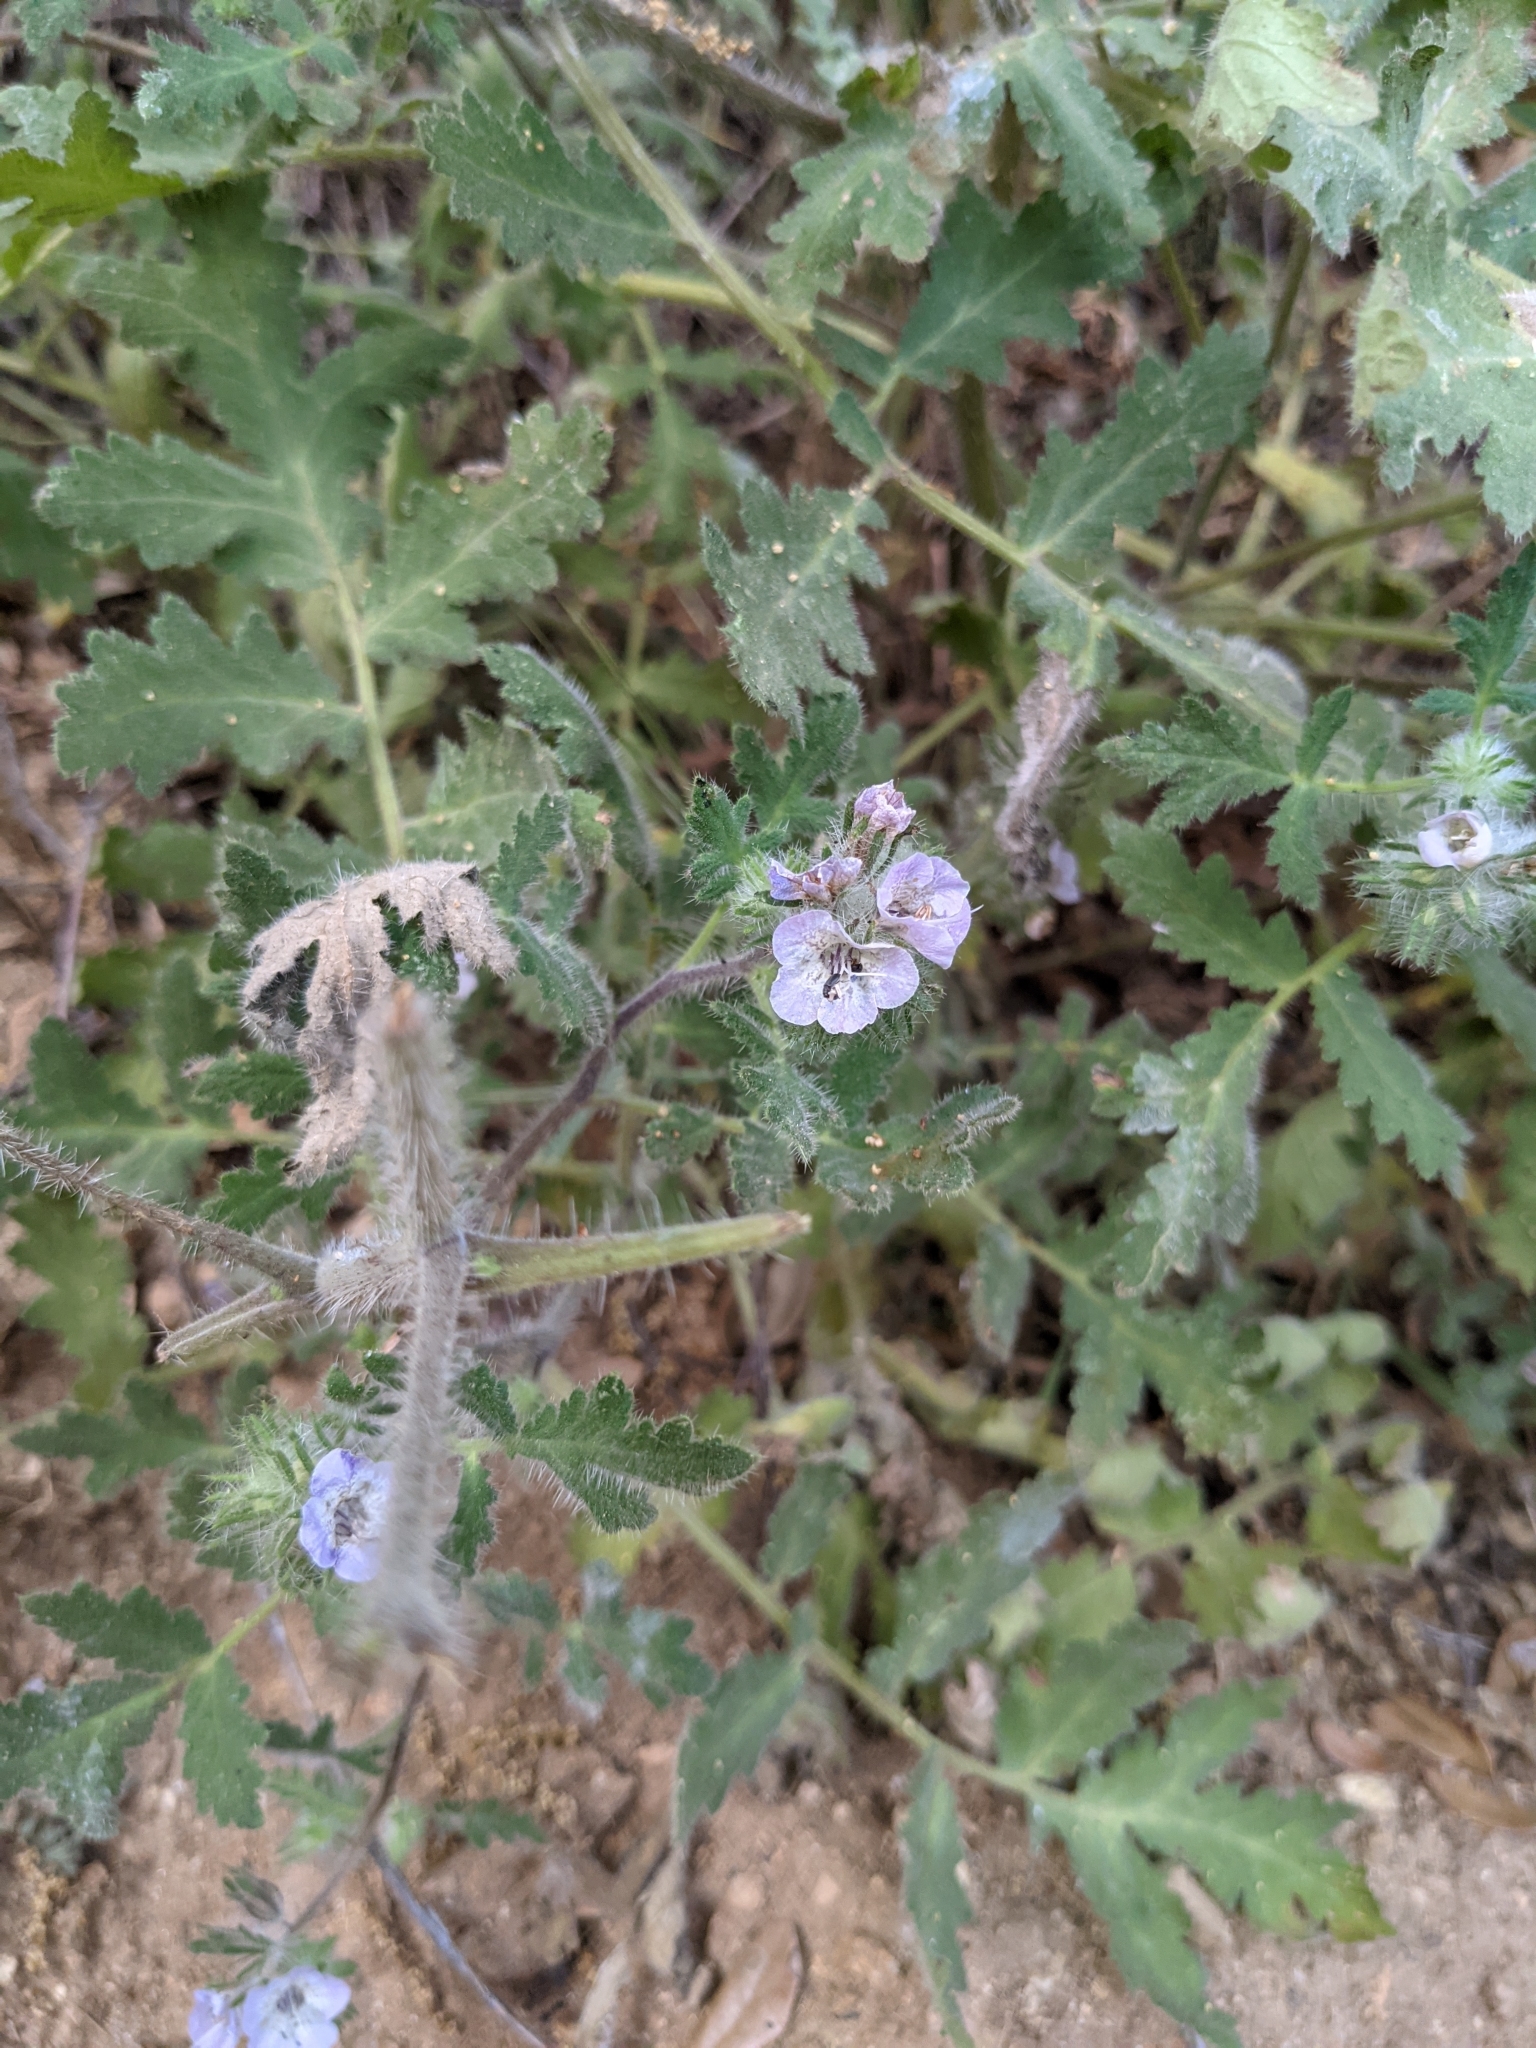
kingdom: Plantae
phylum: Tracheophyta
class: Magnoliopsida
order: Boraginales
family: Hydrophyllaceae
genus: Phacelia
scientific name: Phacelia cicutaria
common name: Caterpillar phacelia
